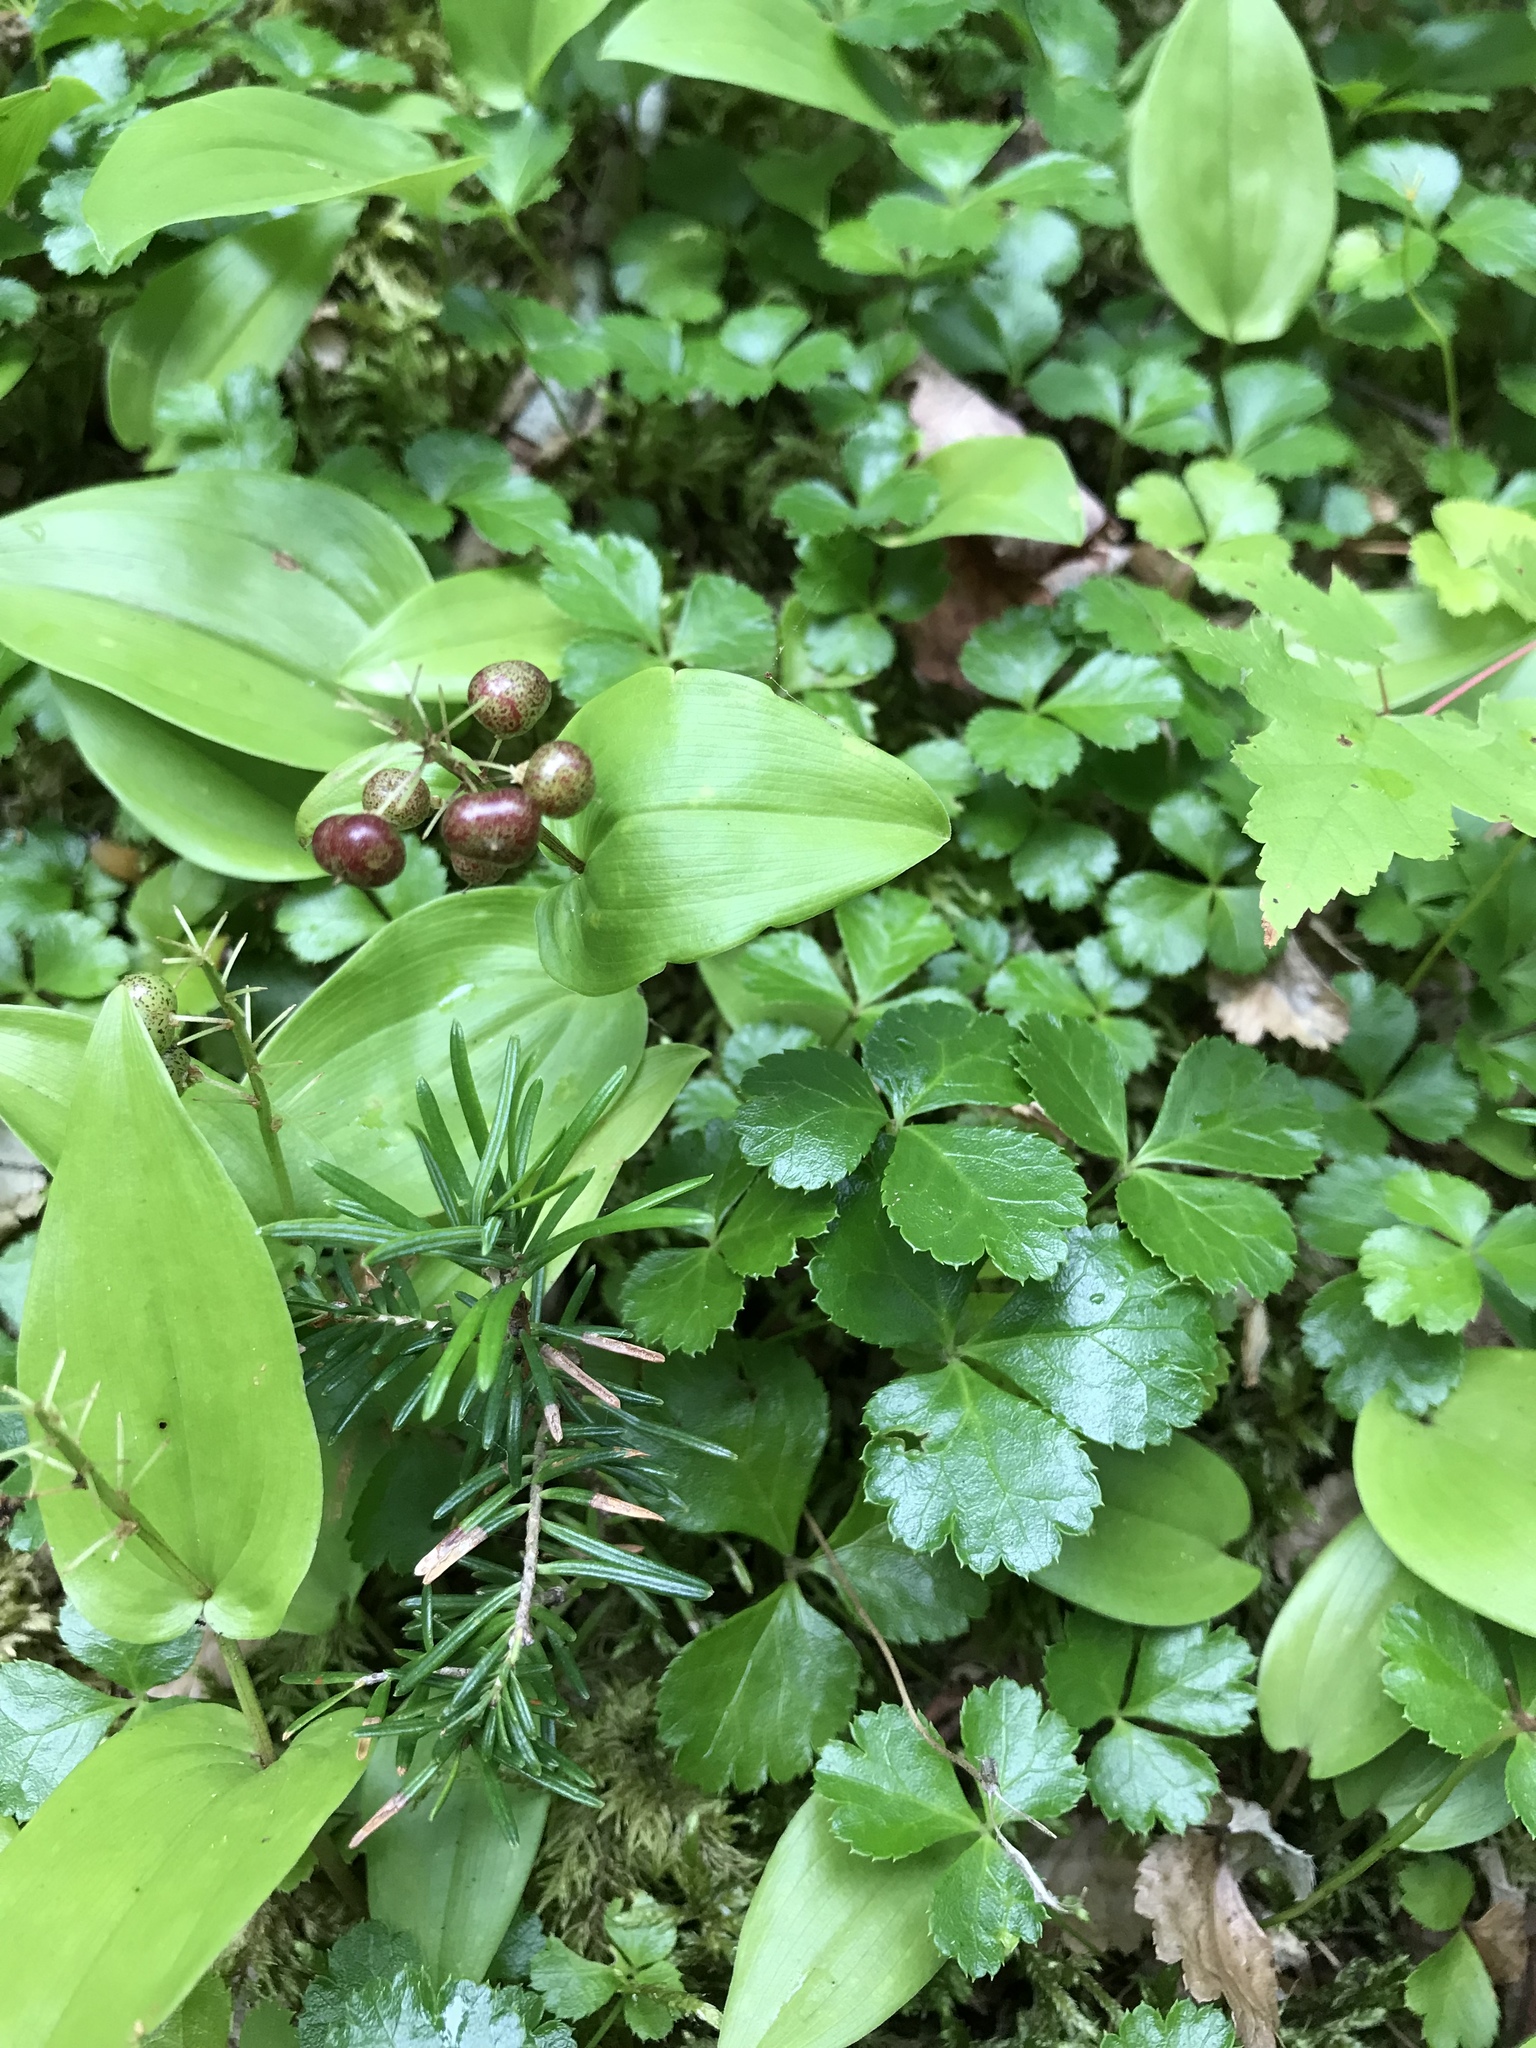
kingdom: Plantae
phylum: Tracheophyta
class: Magnoliopsida
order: Ranunculales
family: Ranunculaceae
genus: Coptis
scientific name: Coptis trifolia
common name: Canker-root
